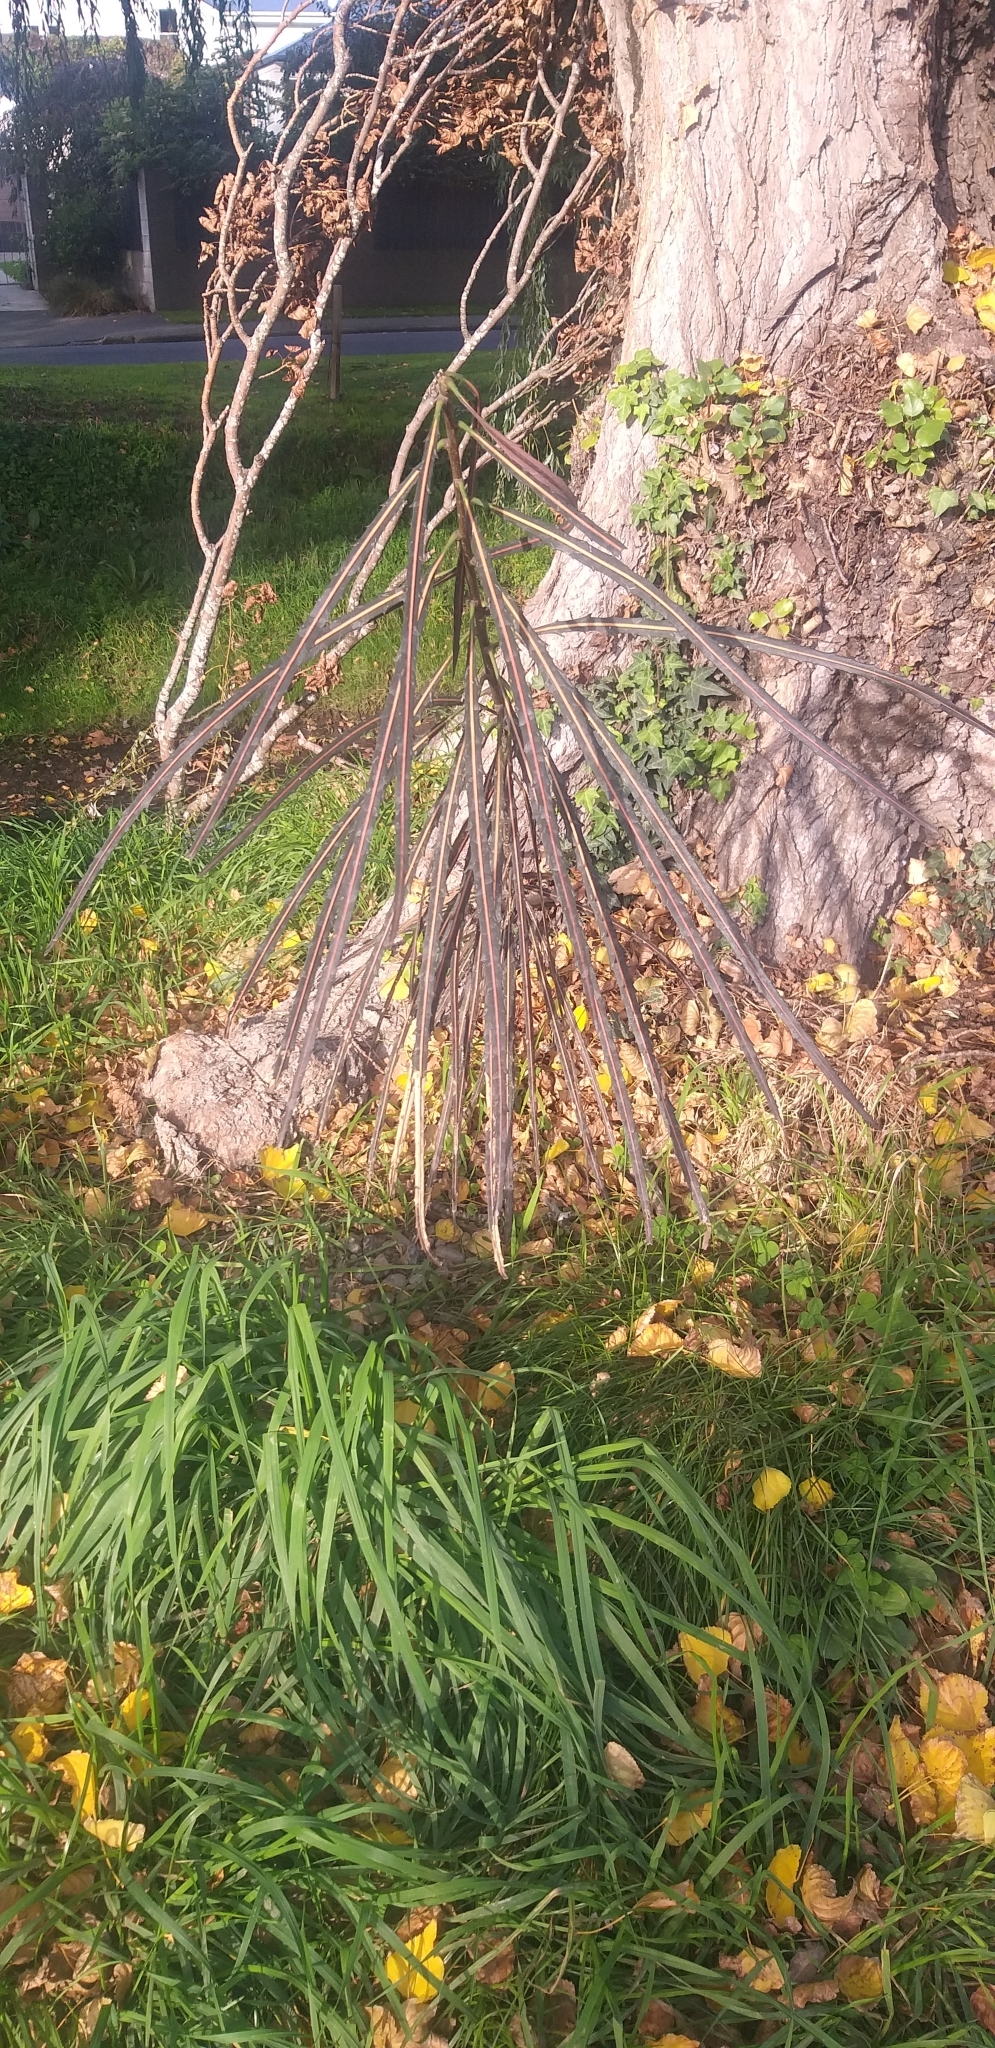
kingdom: Plantae
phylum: Tracheophyta
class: Magnoliopsida
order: Apiales
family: Araliaceae
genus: Pseudopanax
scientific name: Pseudopanax crassifolius
